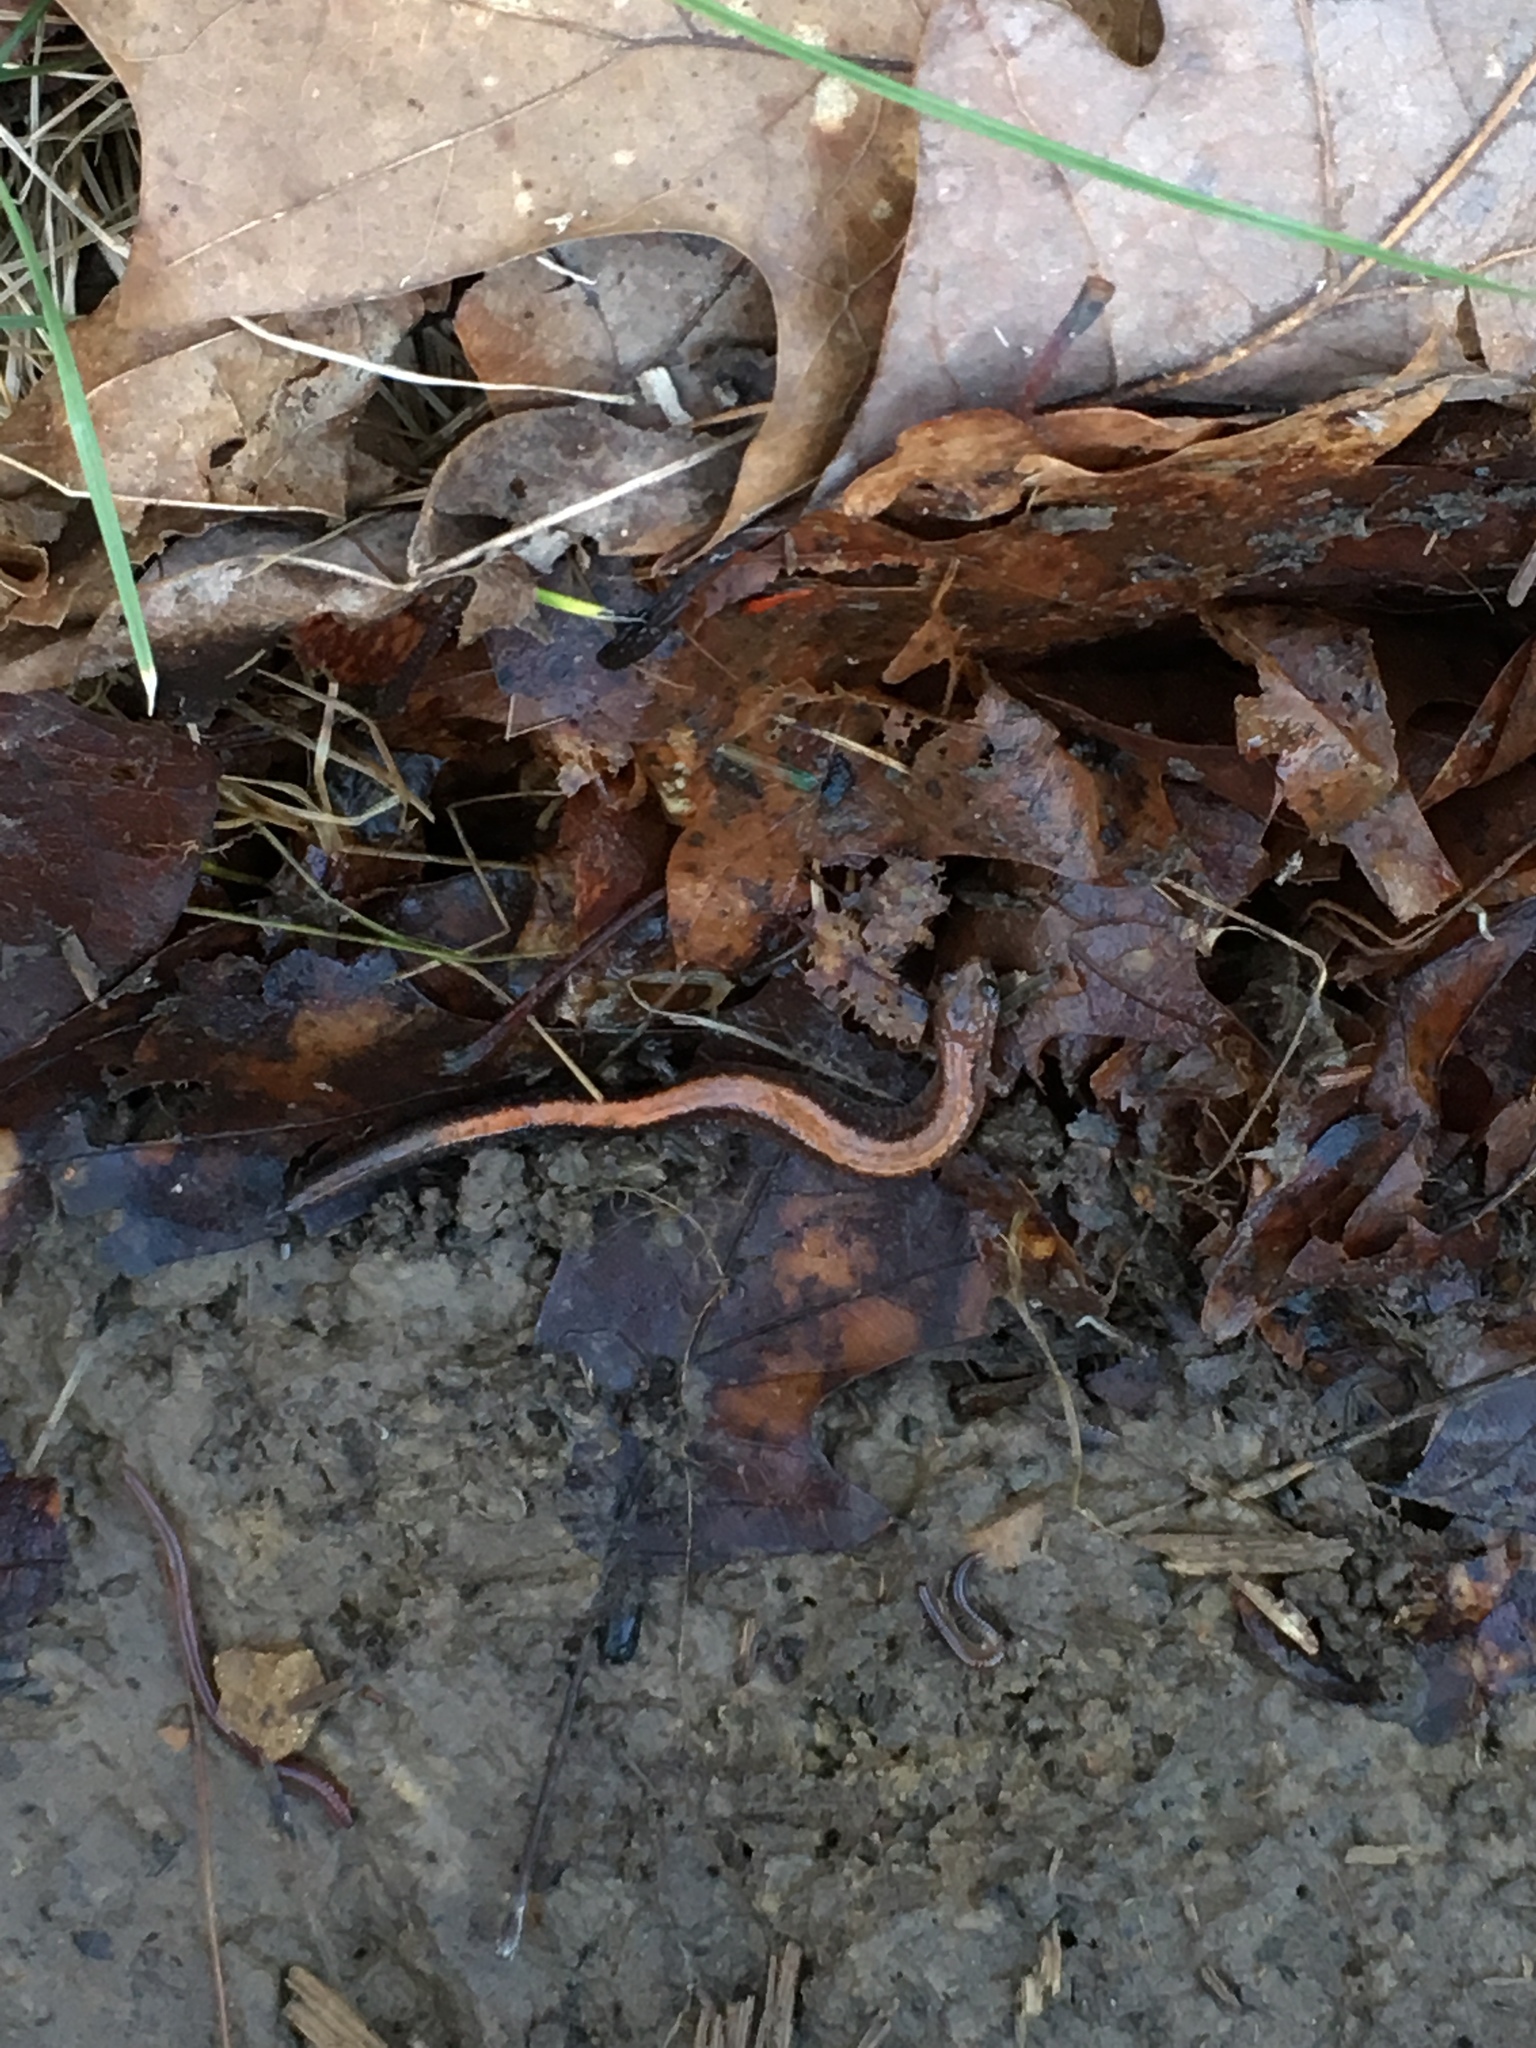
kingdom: Animalia
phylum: Chordata
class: Amphibia
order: Caudata
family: Plethodontidae
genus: Plethodon
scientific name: Plethodon cinereus
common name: Redback salamander
